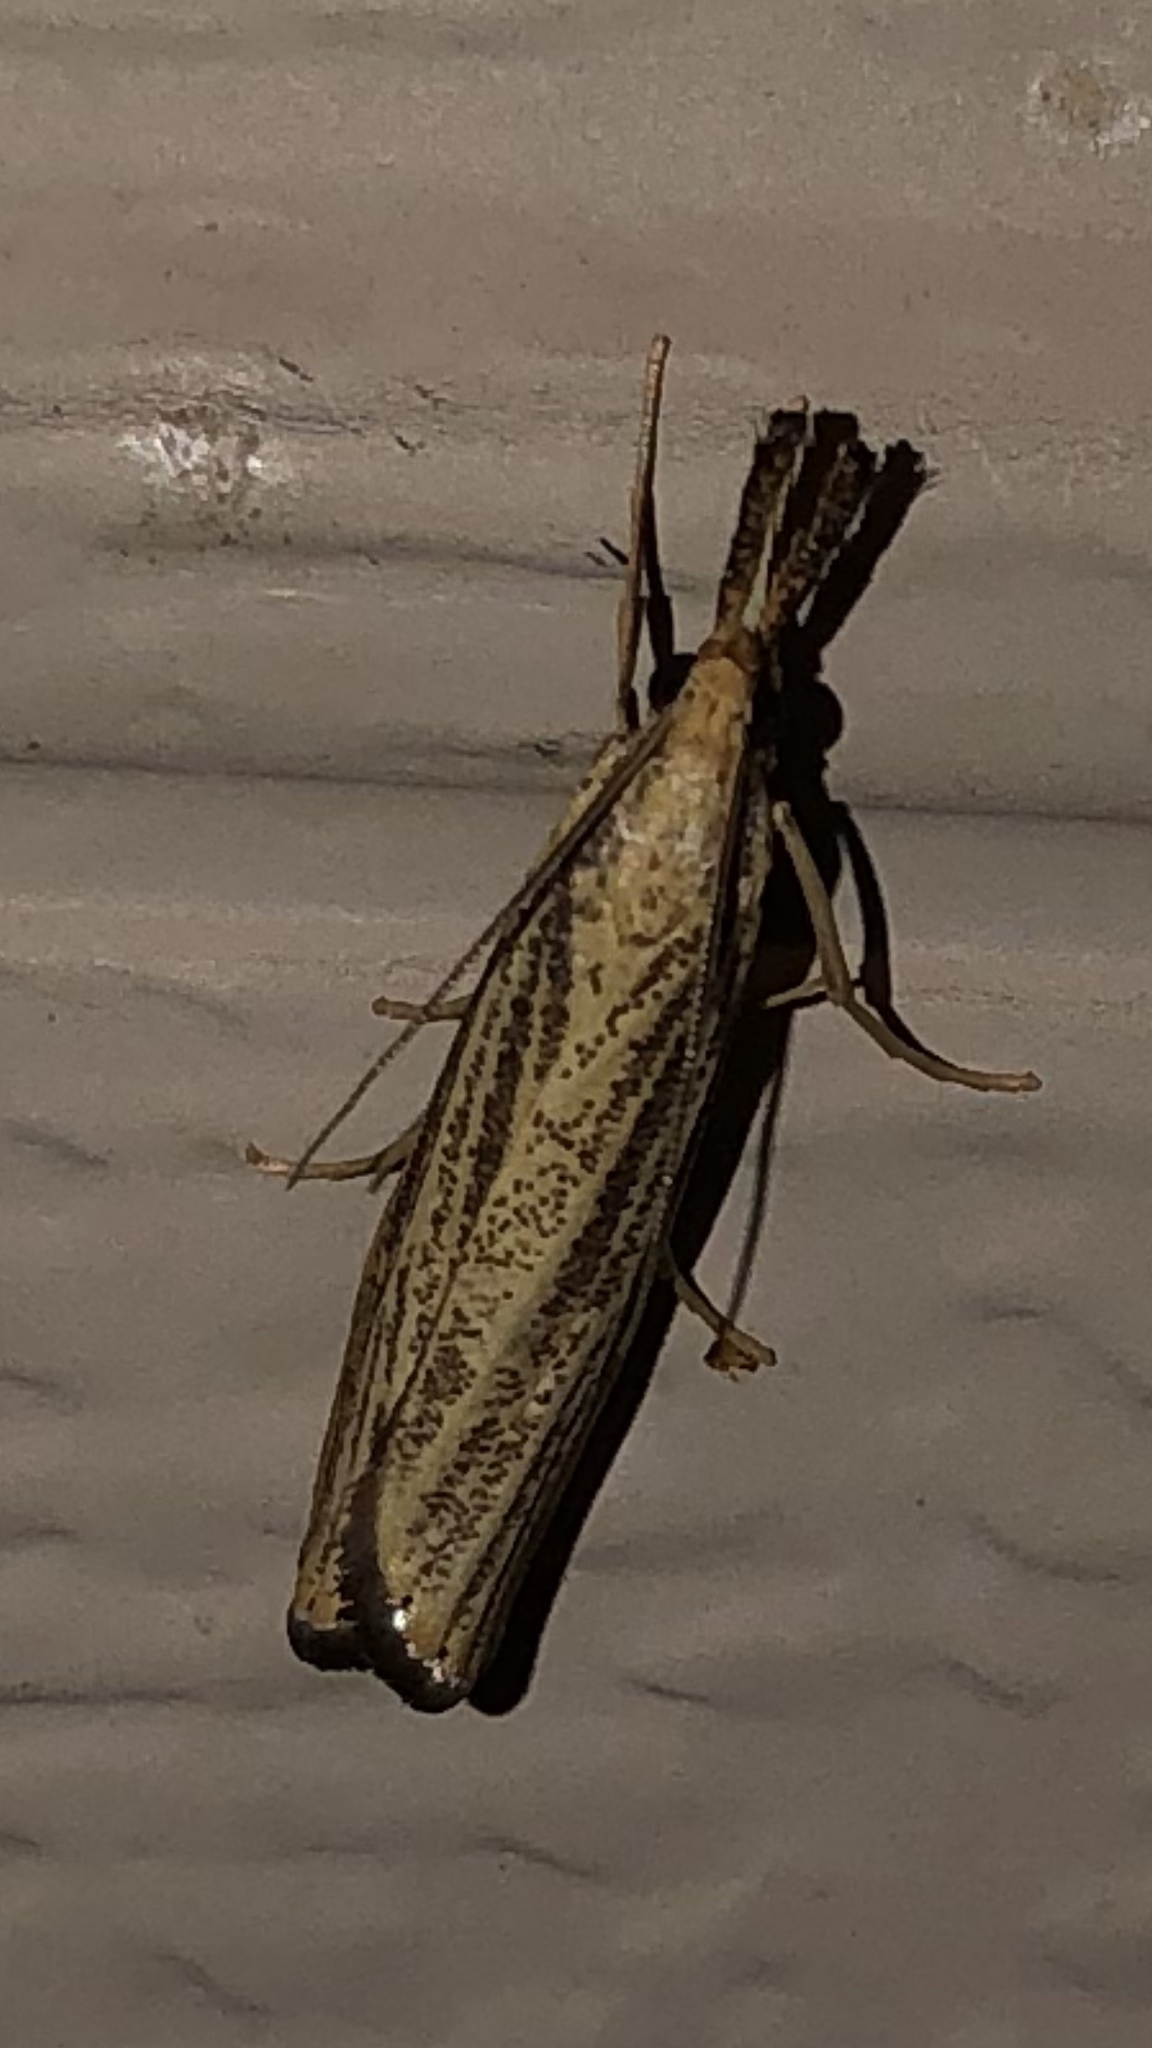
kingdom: Animalia
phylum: Arthropoda
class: Insecta
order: Lepidoptera
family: Crambidae
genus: Agriphila
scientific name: Agriphila vulgivagellus
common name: Vagabond crambus moth
